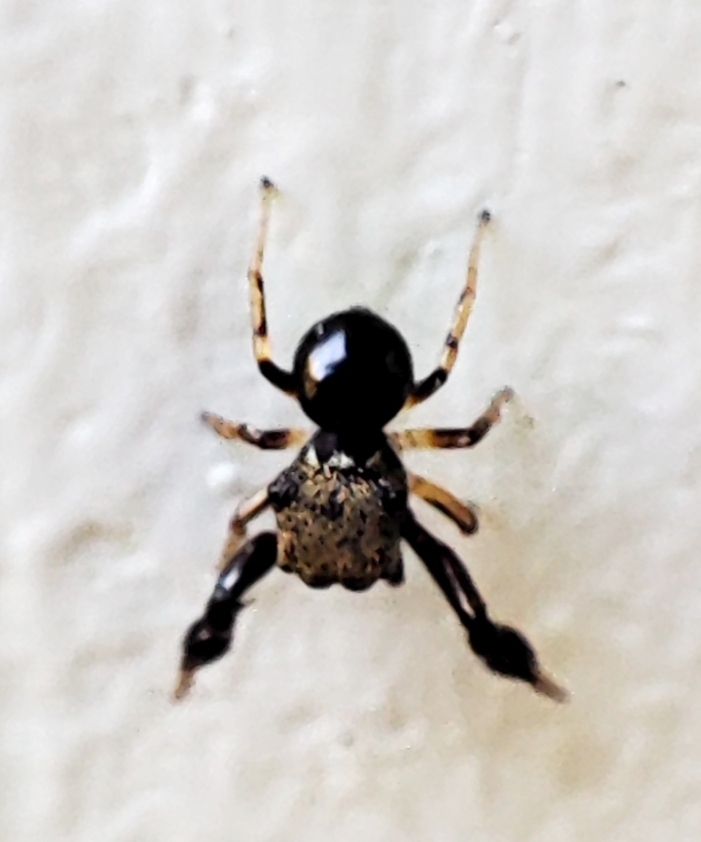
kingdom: Animalia
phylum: Arthropoda
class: Arachnida
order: Araneae
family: Salticidae
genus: Harmochirus
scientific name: Harmochirus brachiatus
